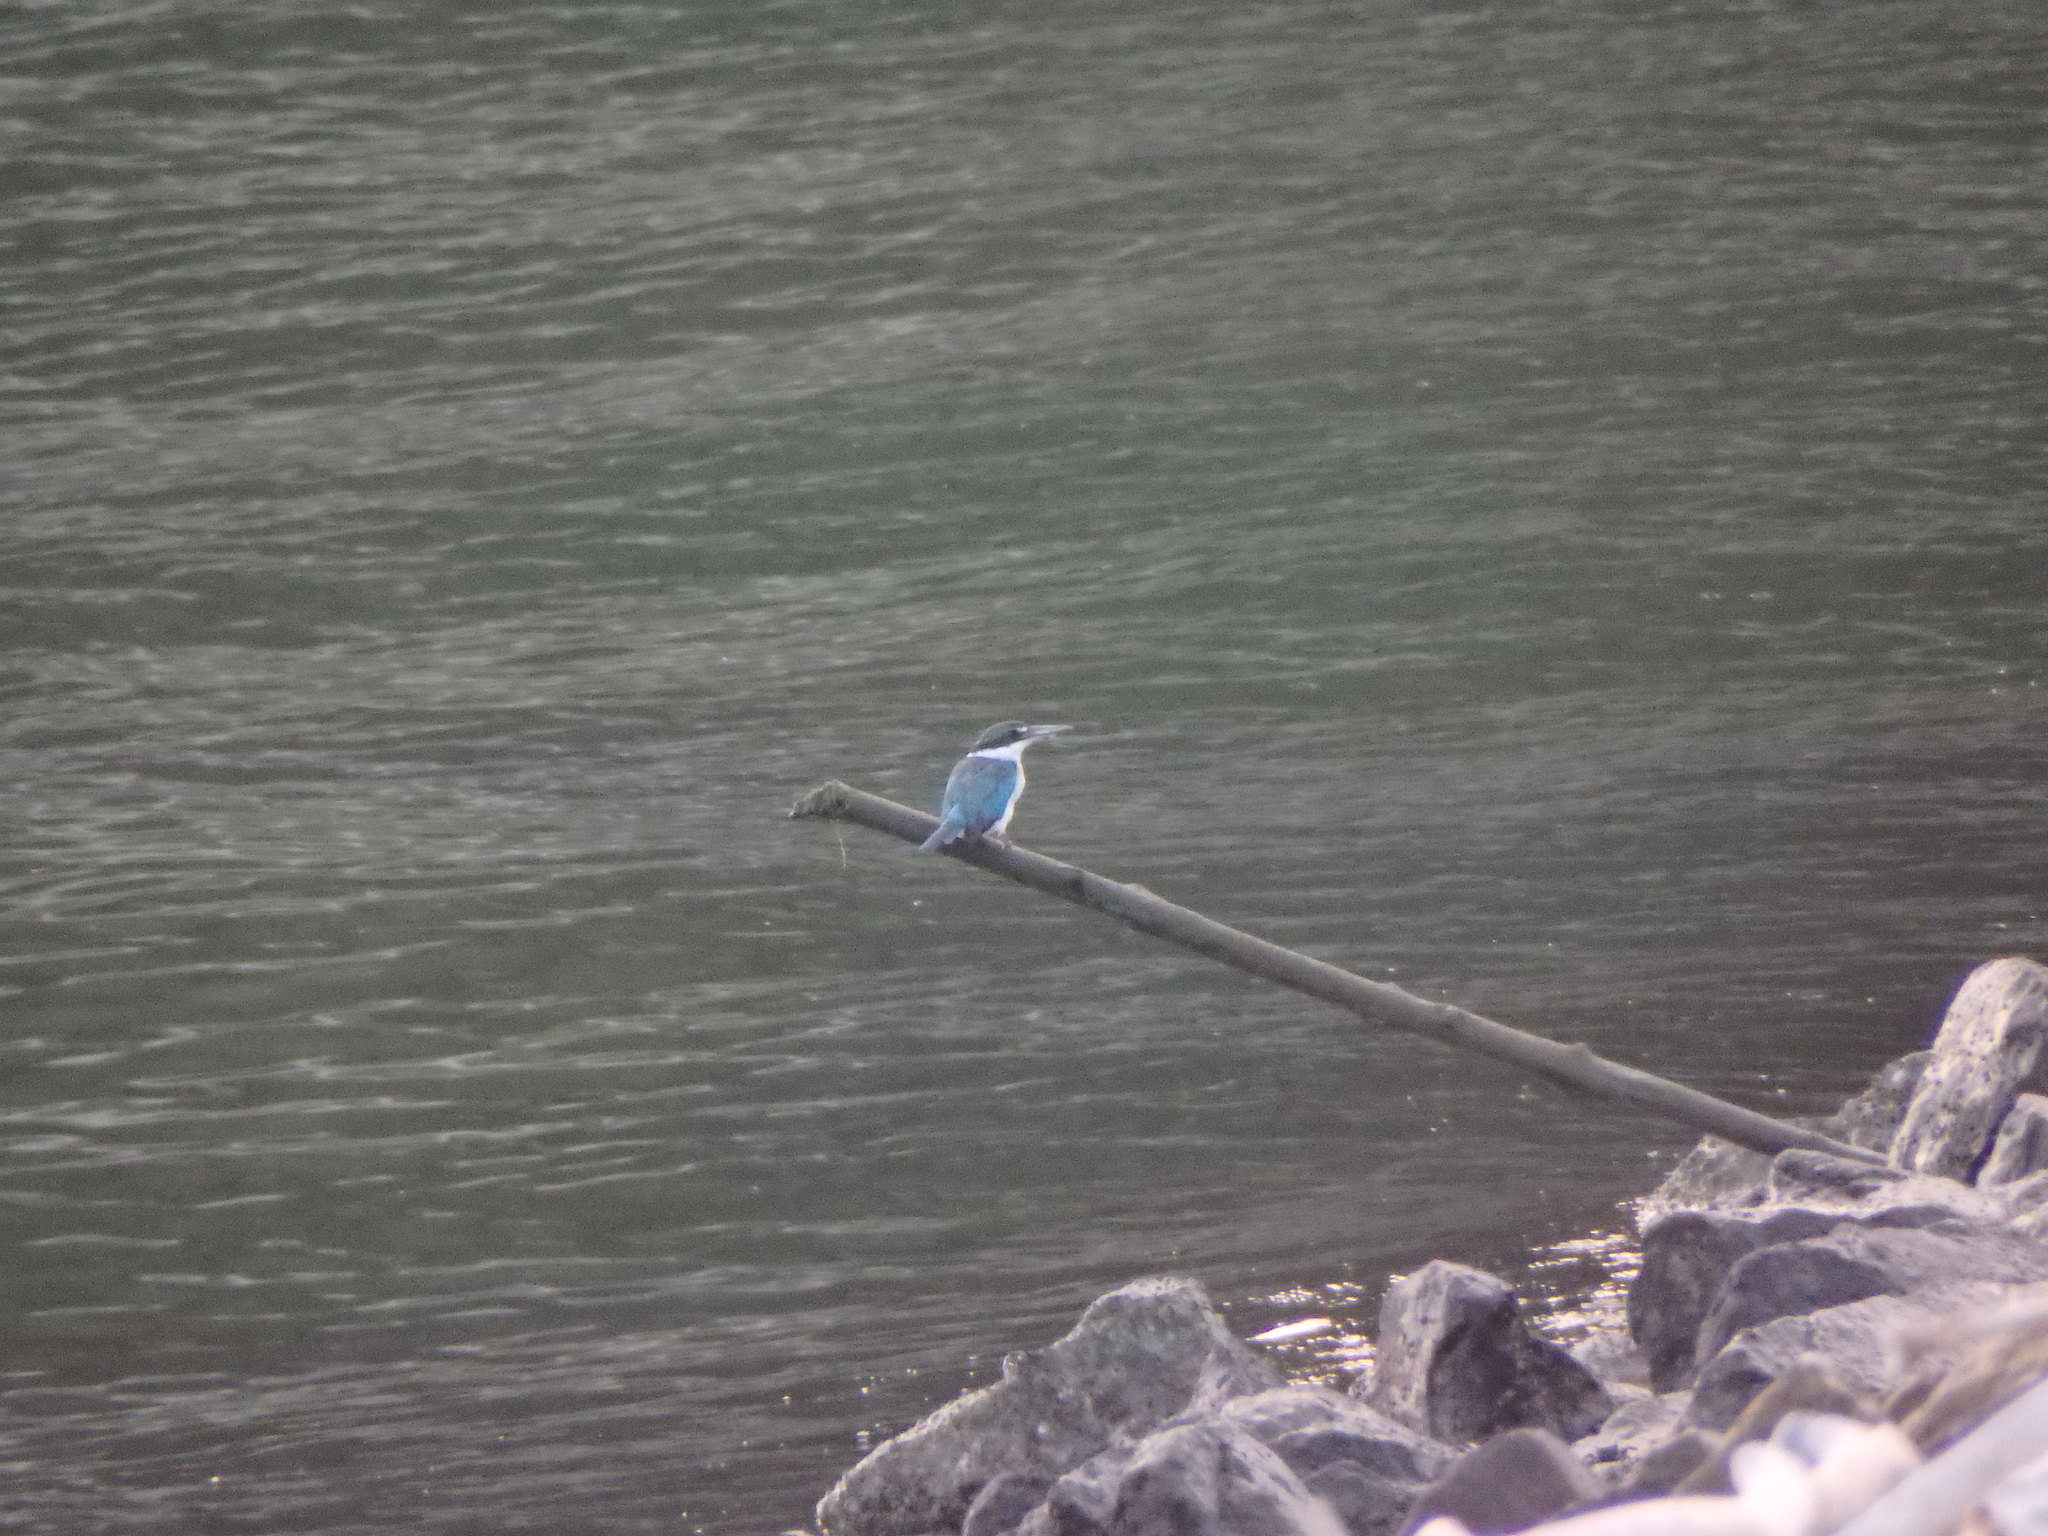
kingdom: Animalia
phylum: Chordata
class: Aves
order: Coraciiformes
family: Alcedinidae
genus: Todiramphus
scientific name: Todiramphus chloris
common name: Collared kingfisher
